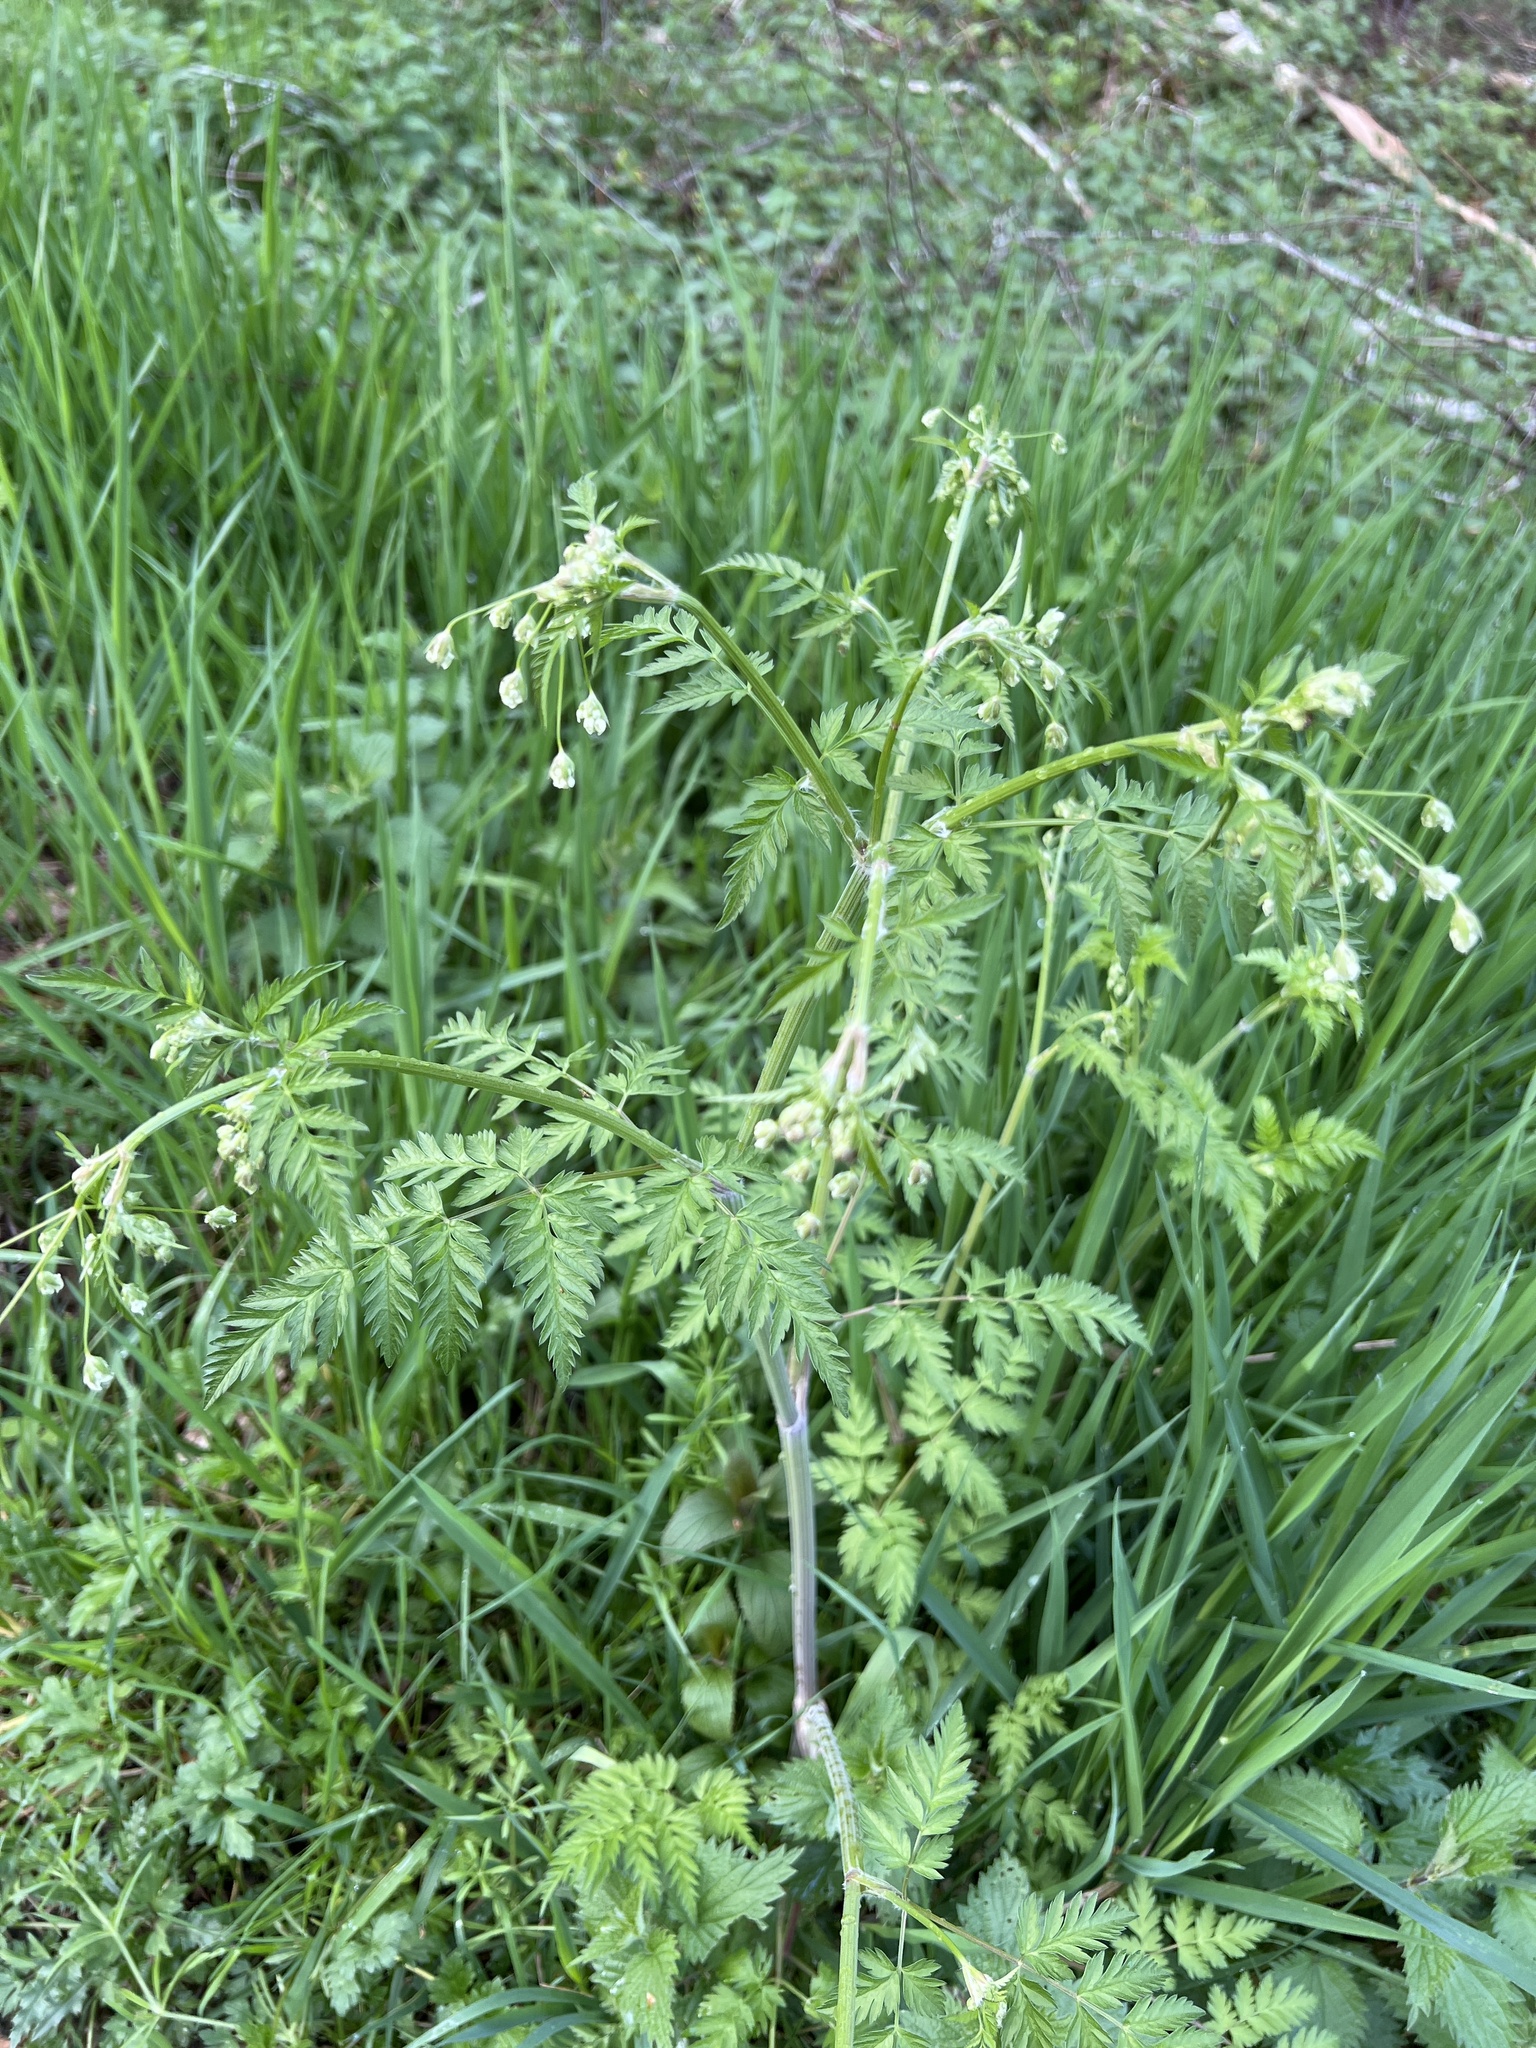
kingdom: Plantae
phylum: Tracheophyta
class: Magnoliopsida
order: Apiales
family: Apiaceae
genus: Anthriscus
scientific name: Anthriscus sylvestris
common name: Cow parsley
